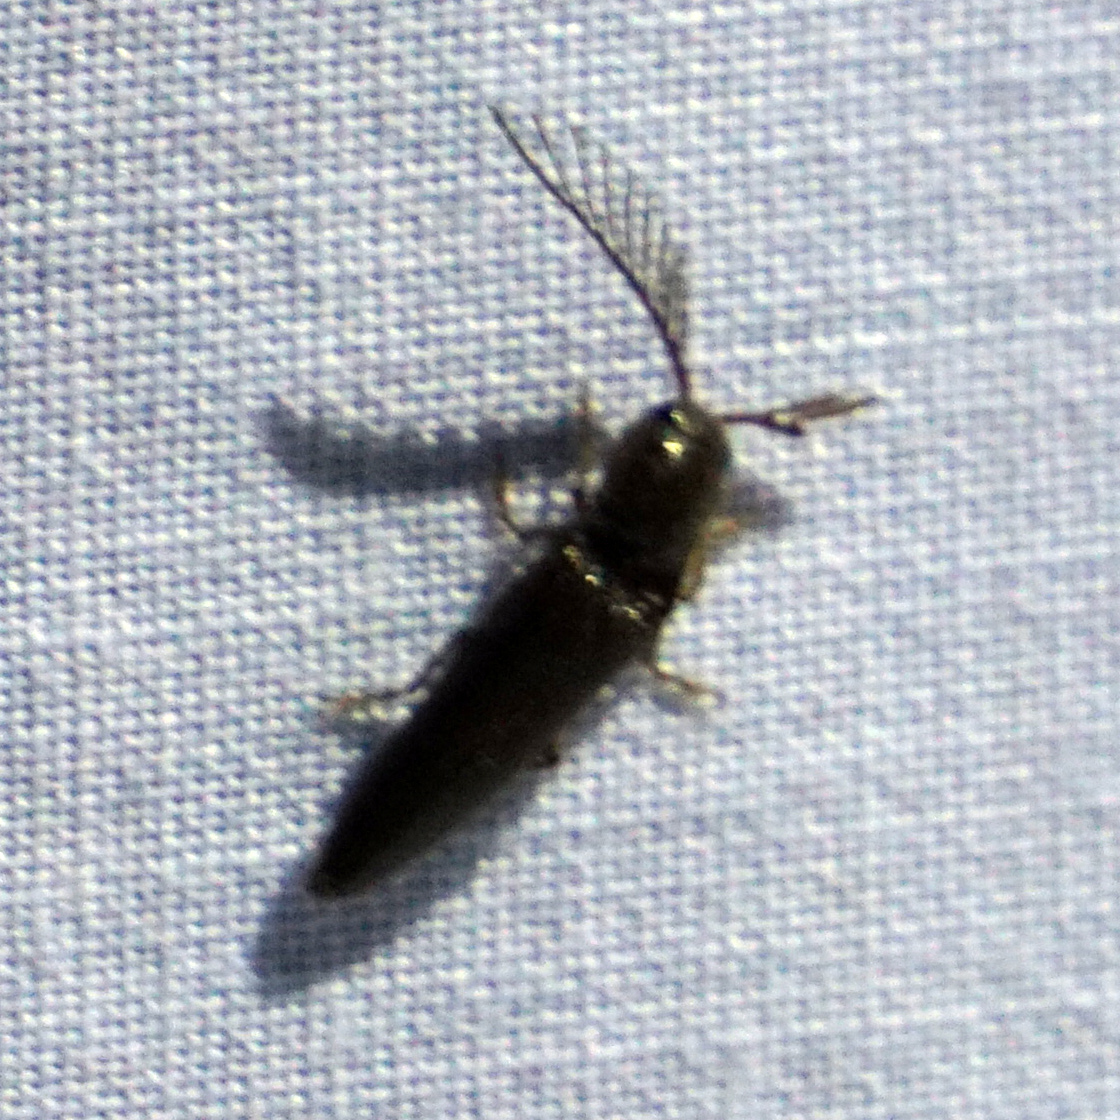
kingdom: Animalia
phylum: Arthropoda
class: Insecta
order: Coleoptera
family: Elateridae
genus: Dicrepidius
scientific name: Dicrepidius palmatus
